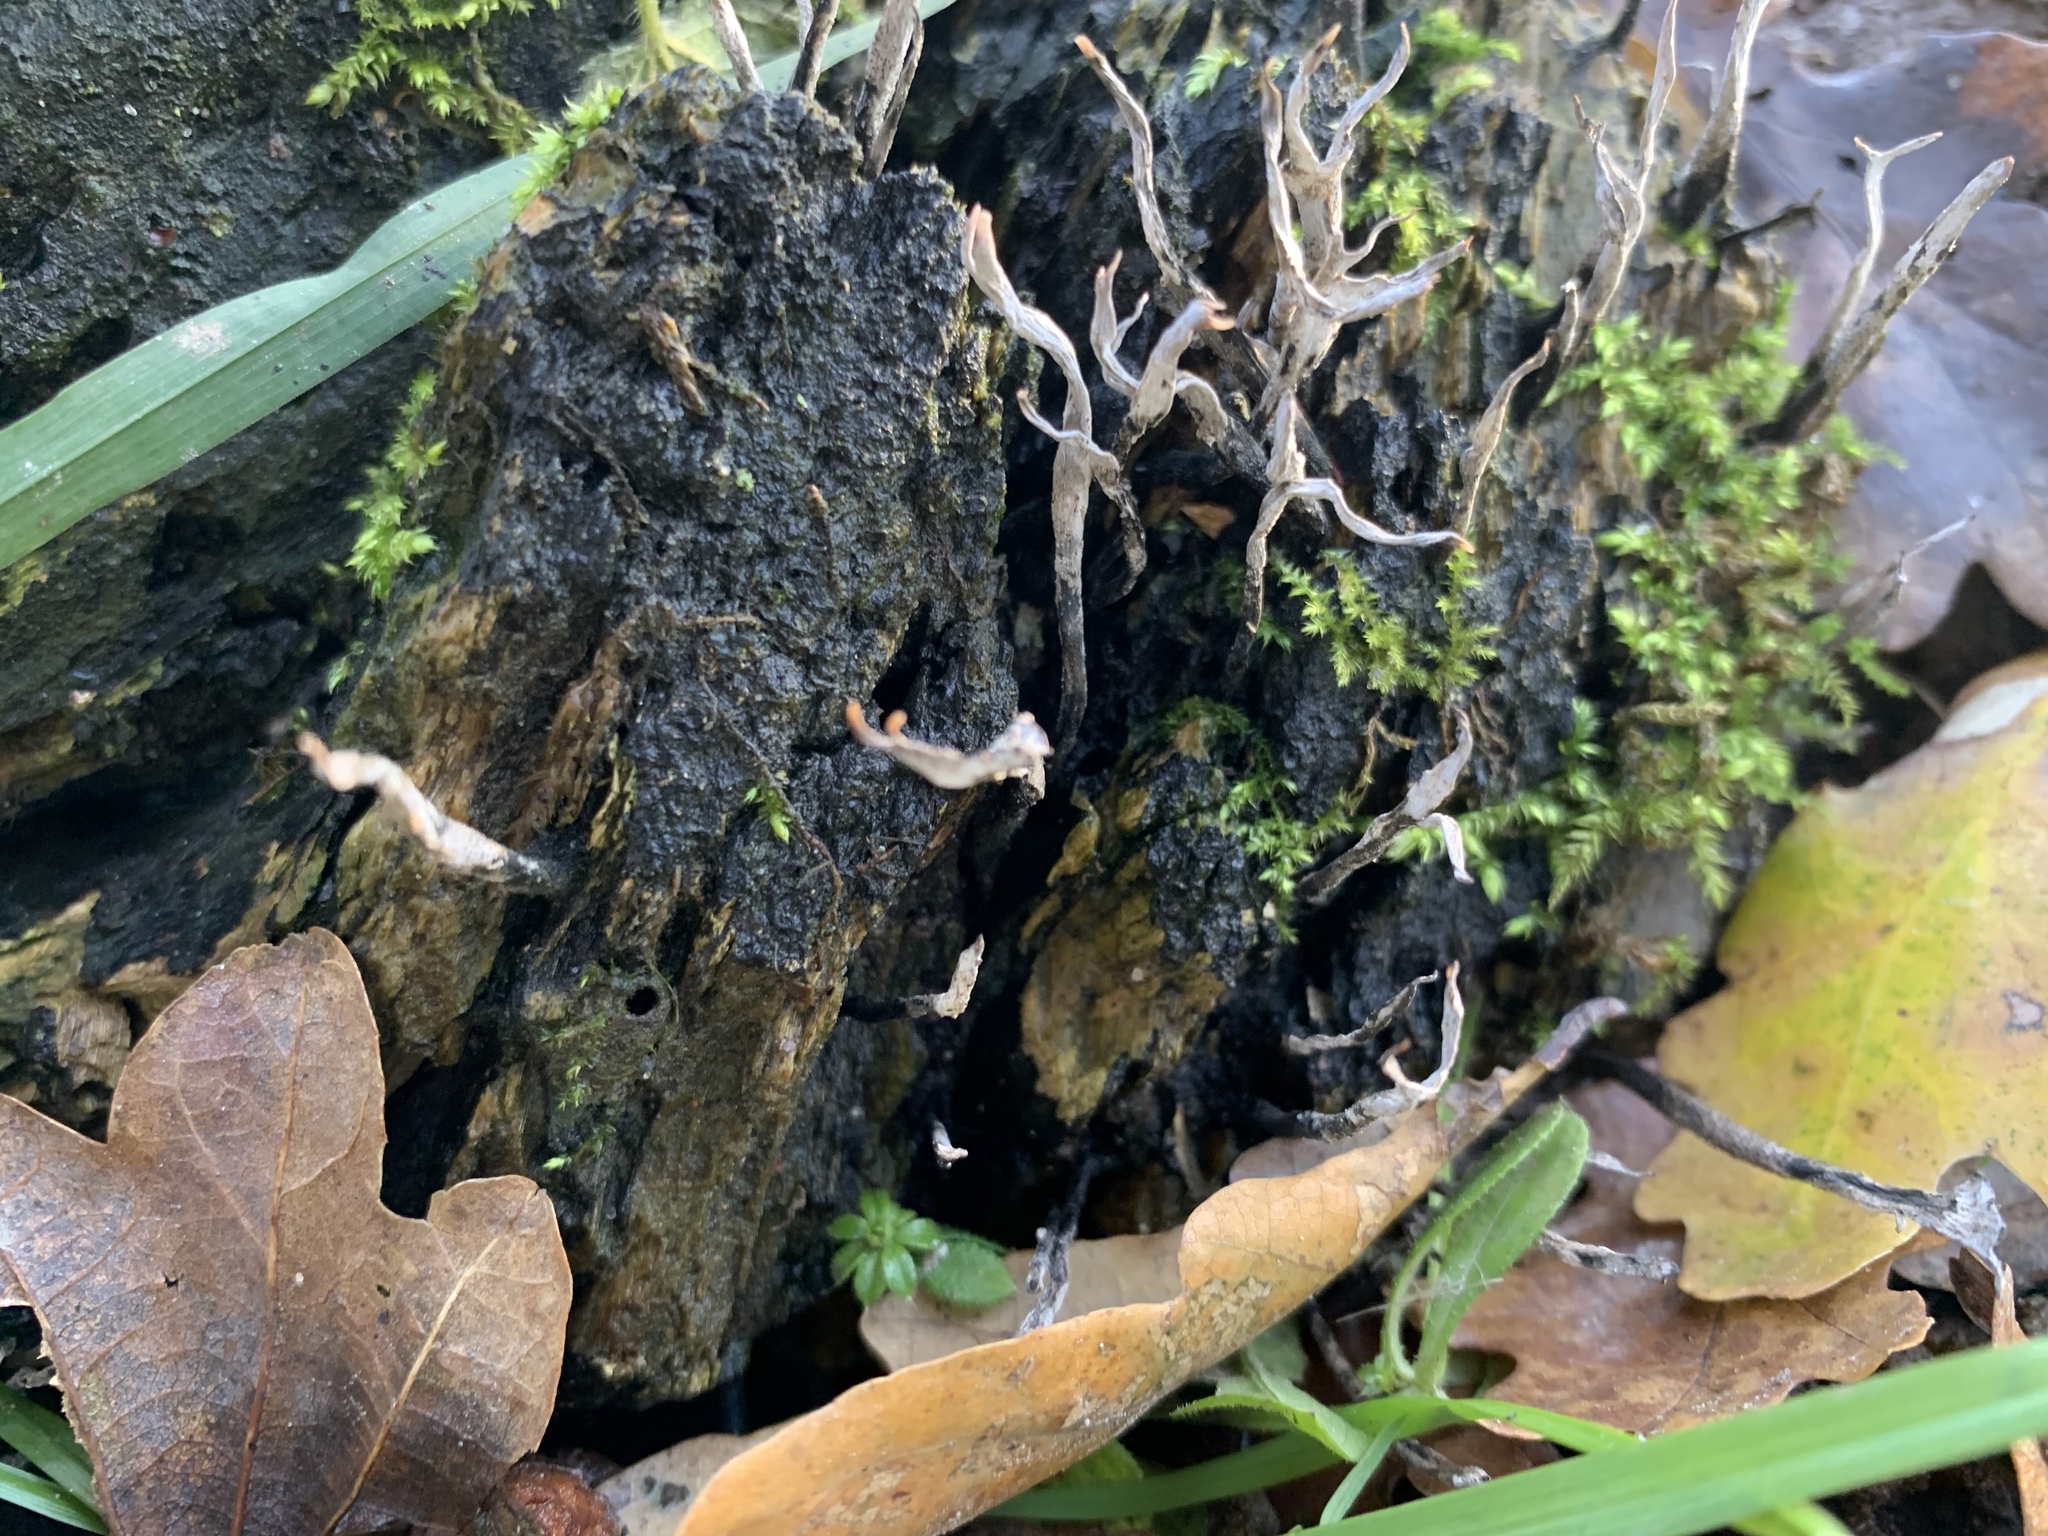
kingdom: Fungi
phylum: Ascomycota
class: Sordariomycetes
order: Xylariales
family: Xylariaceae
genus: Xylaria
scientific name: Xylaria hypoxylon
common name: Candle-snuff fungus
